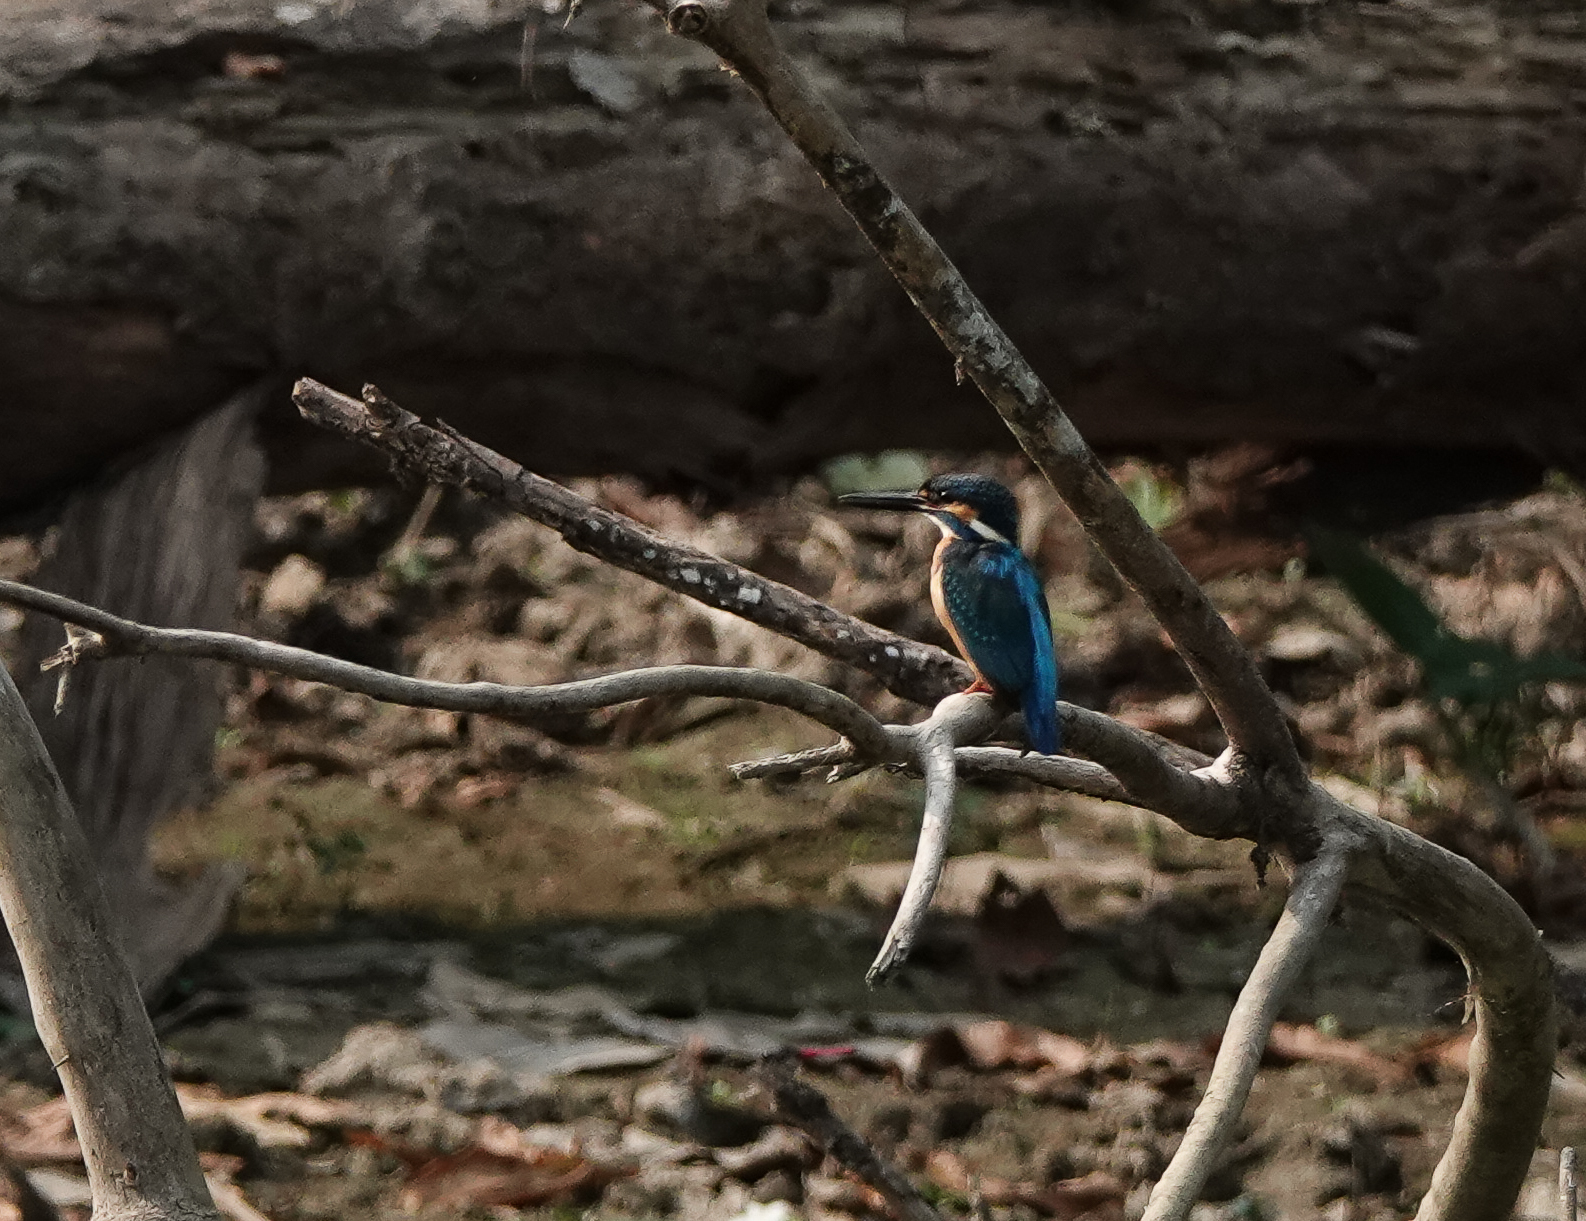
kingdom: Animalia
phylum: Chordata
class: Aves
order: Coraciiformes
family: Alcedinidae
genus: Alcedo
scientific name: Alcedo atthis
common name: Common kingfisher
